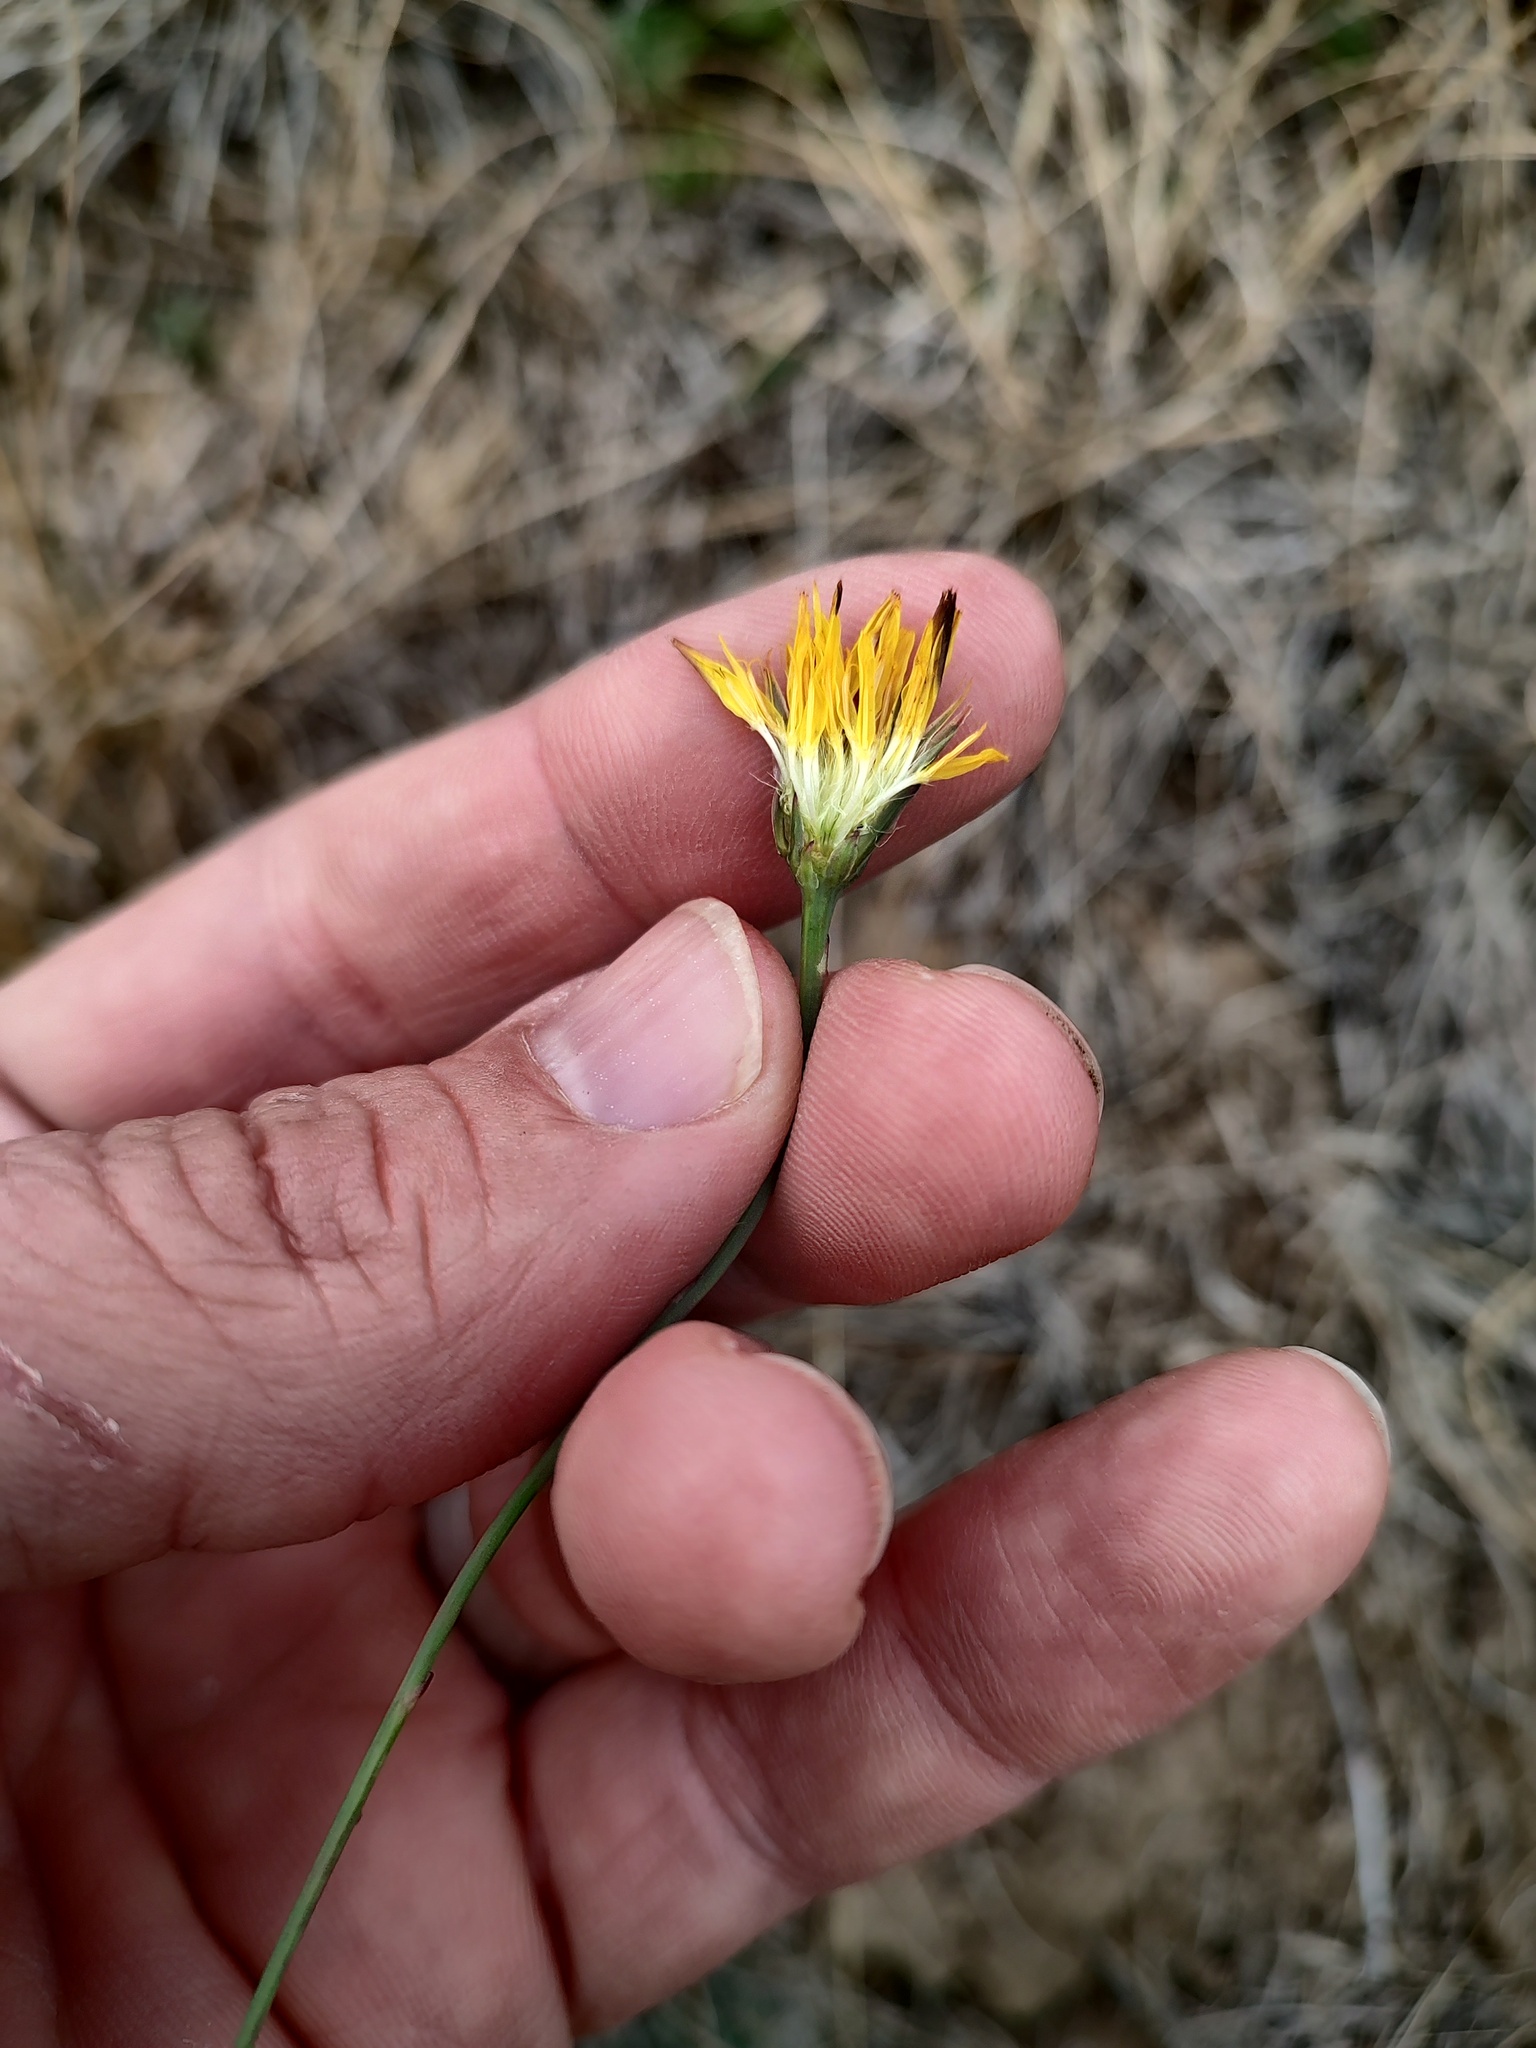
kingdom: Plantae
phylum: Tracheophyta
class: Magnoliopsida
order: Asterales
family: Asteraceae
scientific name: Asteraceae
